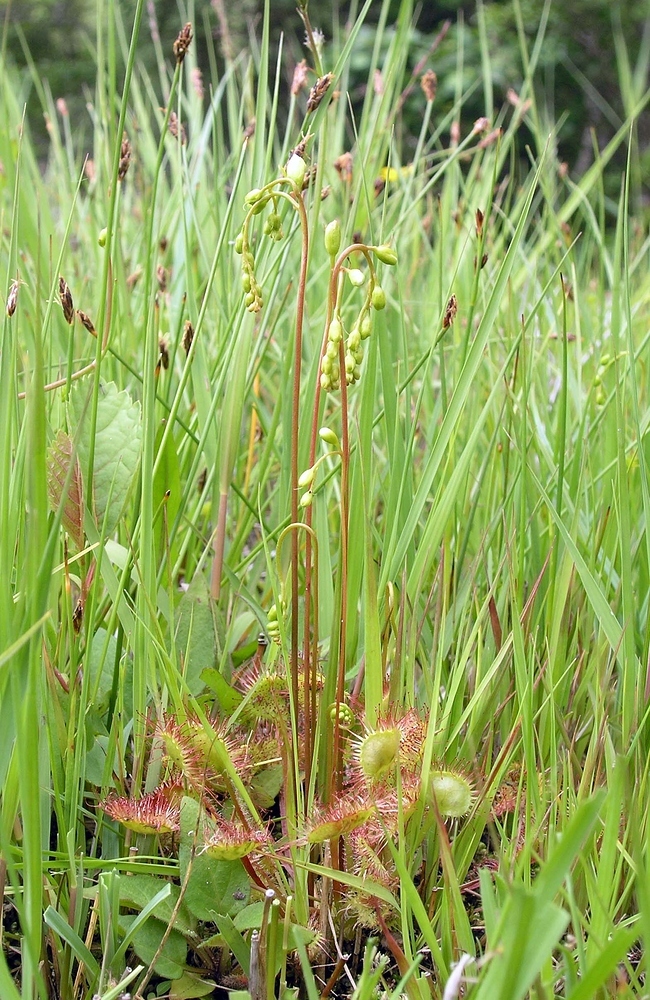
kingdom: Plantae
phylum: Tracheophyta
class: Magnoliopsida
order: Caryophyllales
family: Droseraceae
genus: Drosera
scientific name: Drosera rotundifolia
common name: Round-leaved sundew
